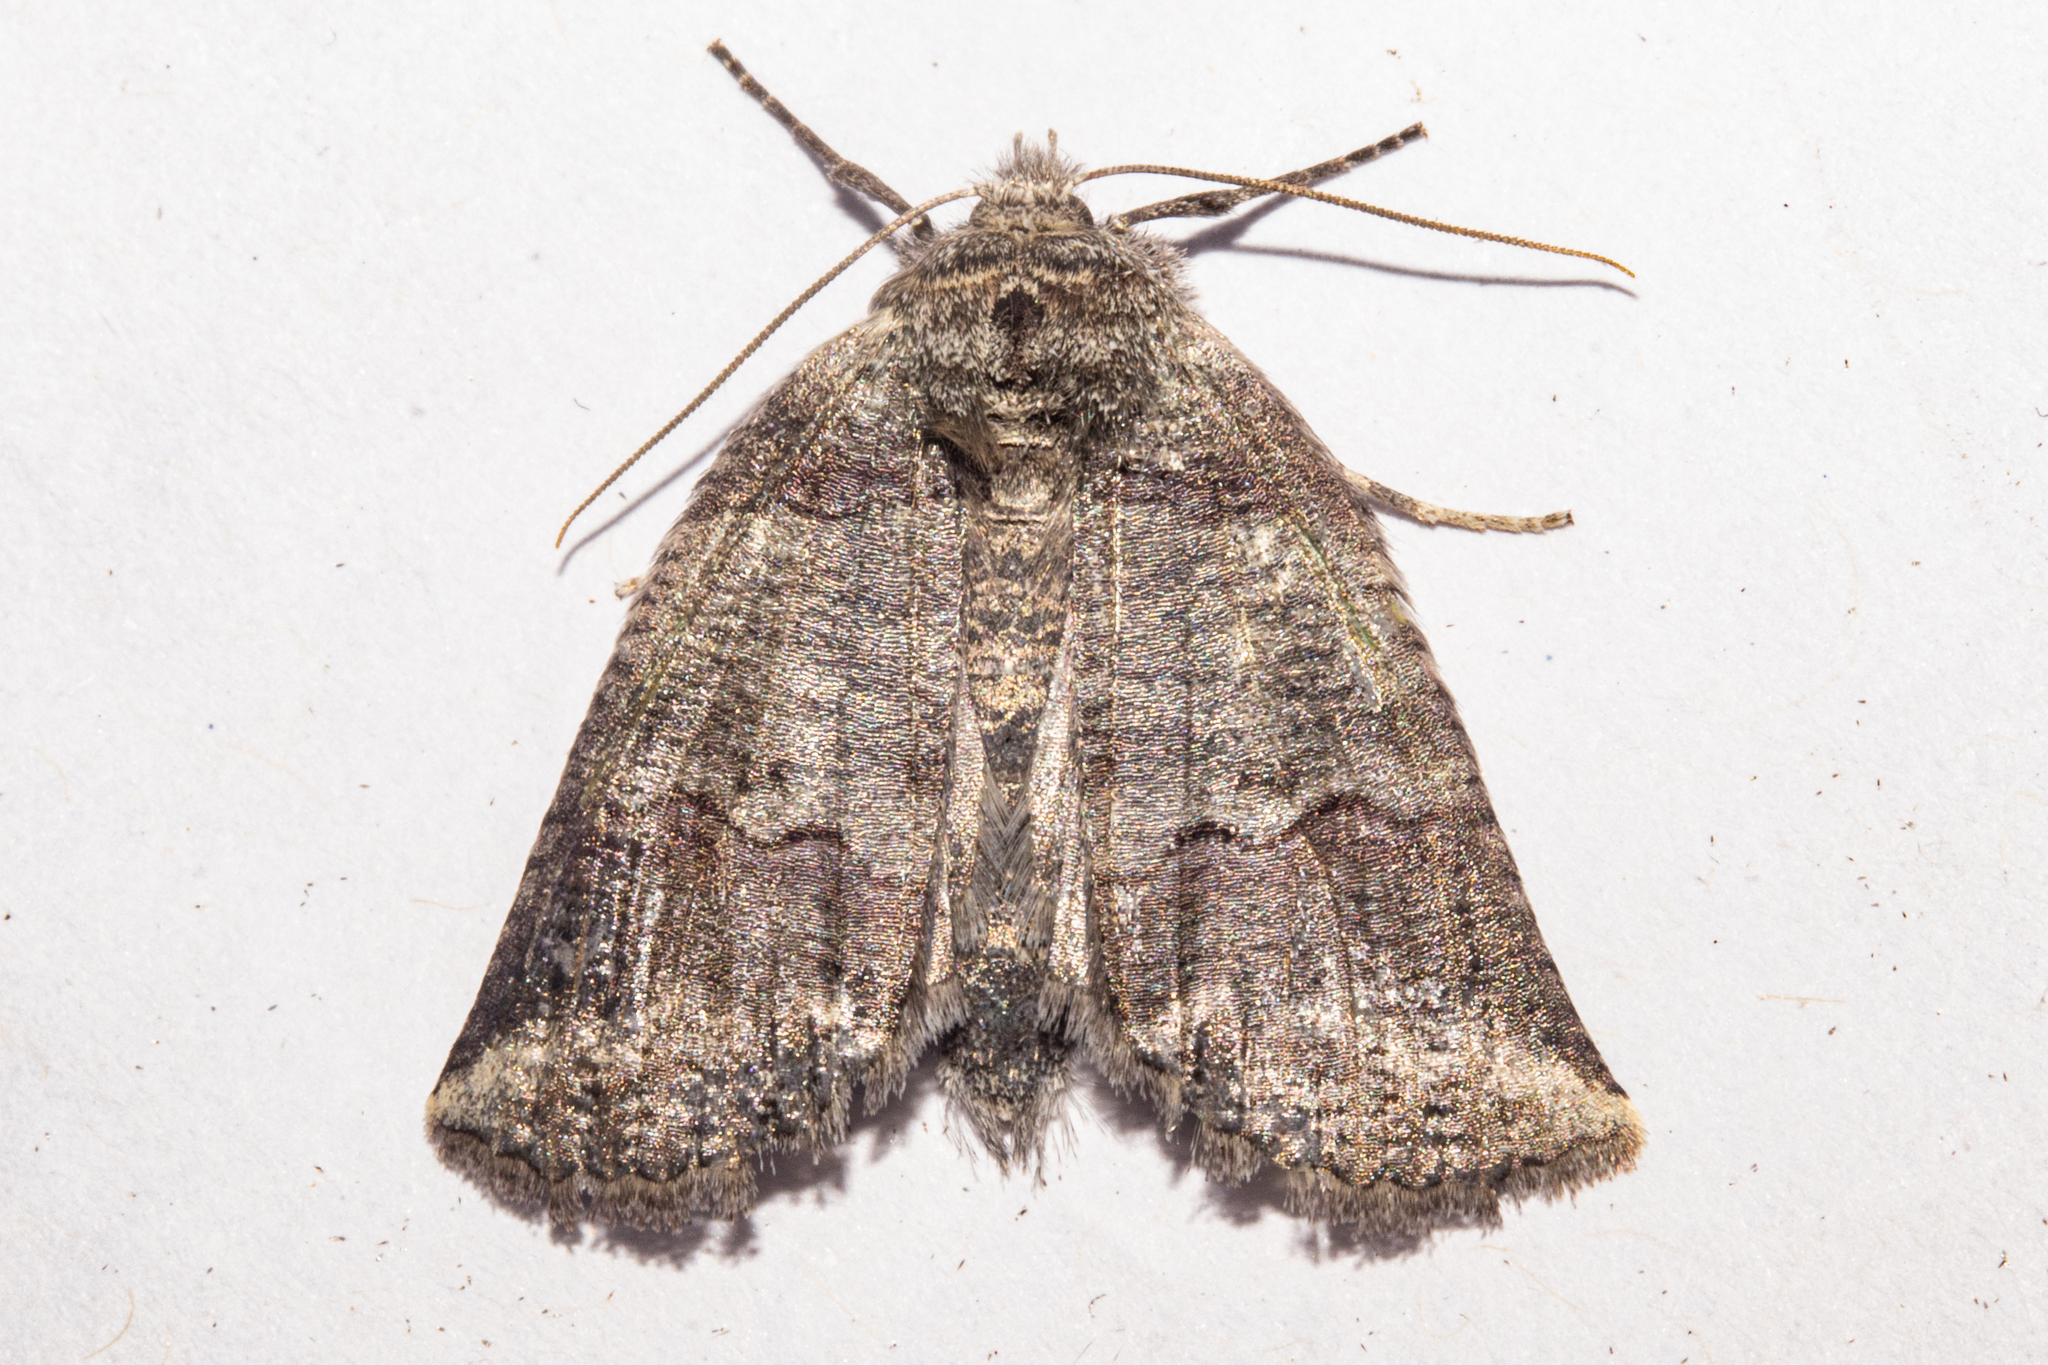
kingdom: Animalia
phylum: Arthropoda
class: Insecta
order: Lepidoptera
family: Geometridae
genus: Declana
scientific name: Declana
